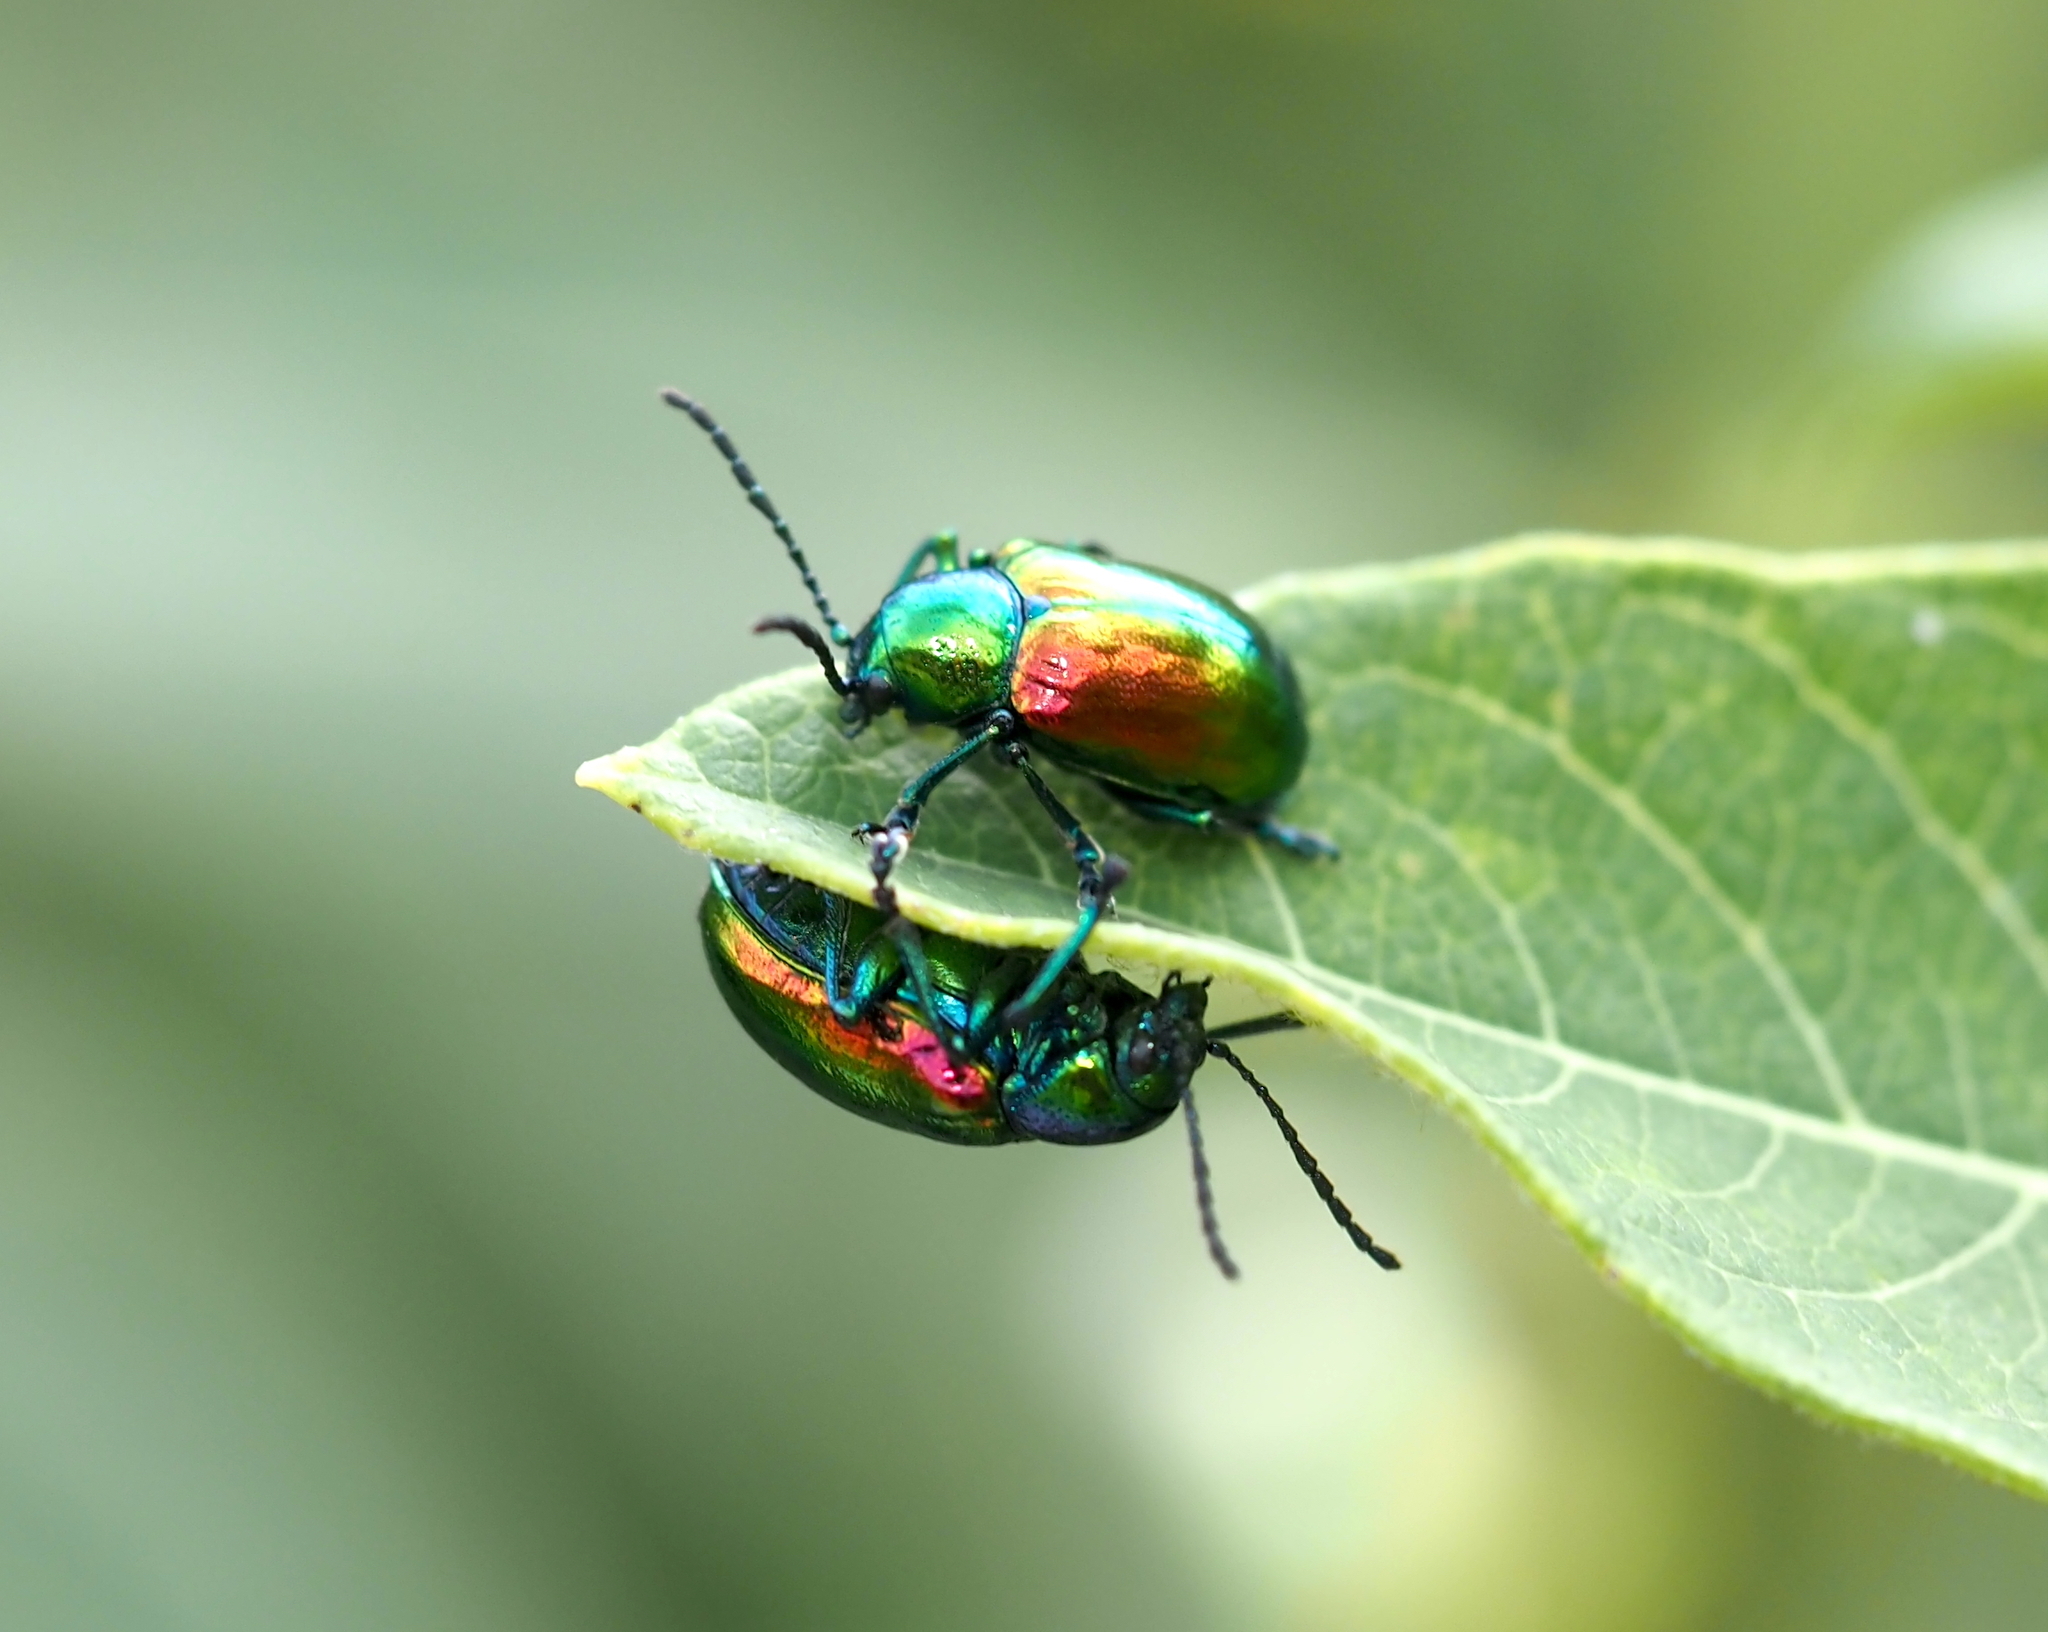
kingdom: Animalia
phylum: Arthropoda
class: Insecta
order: Coleoptera
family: Chrysomelidae
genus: Chrysochus
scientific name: Chrysochus auratus
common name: Dogbane leaf beetle
